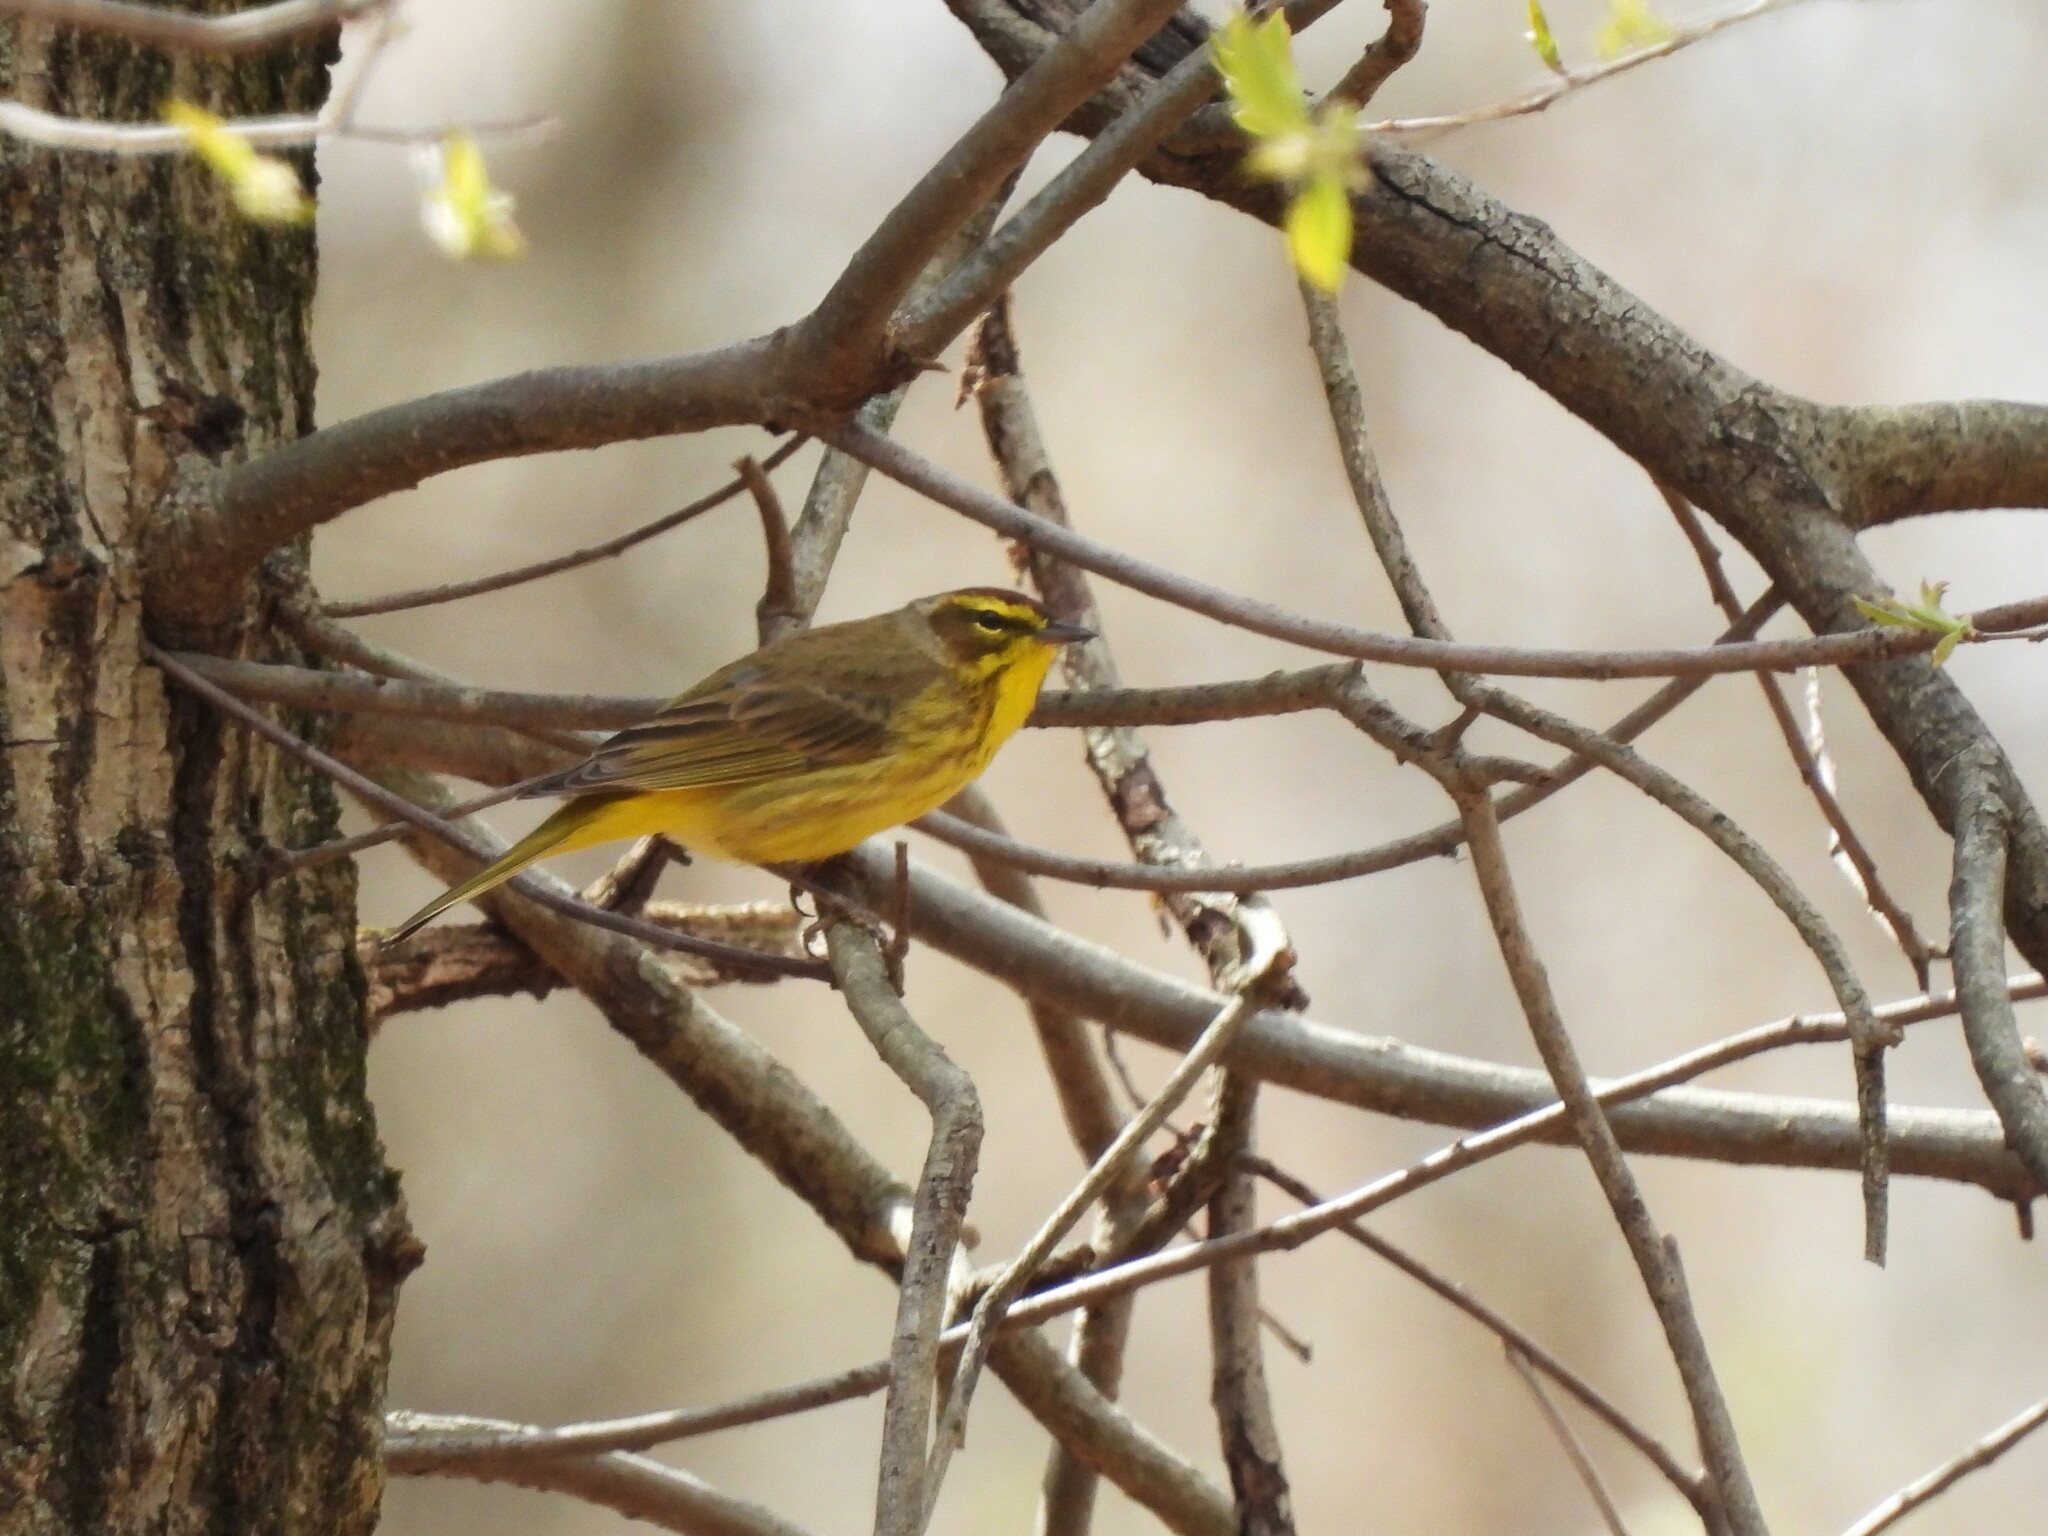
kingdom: Animalia
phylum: Chordata
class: Aves
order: Passeriformes
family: Parulidae
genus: Setophaga
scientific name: Setophaga palmarum
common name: Palm warbler
